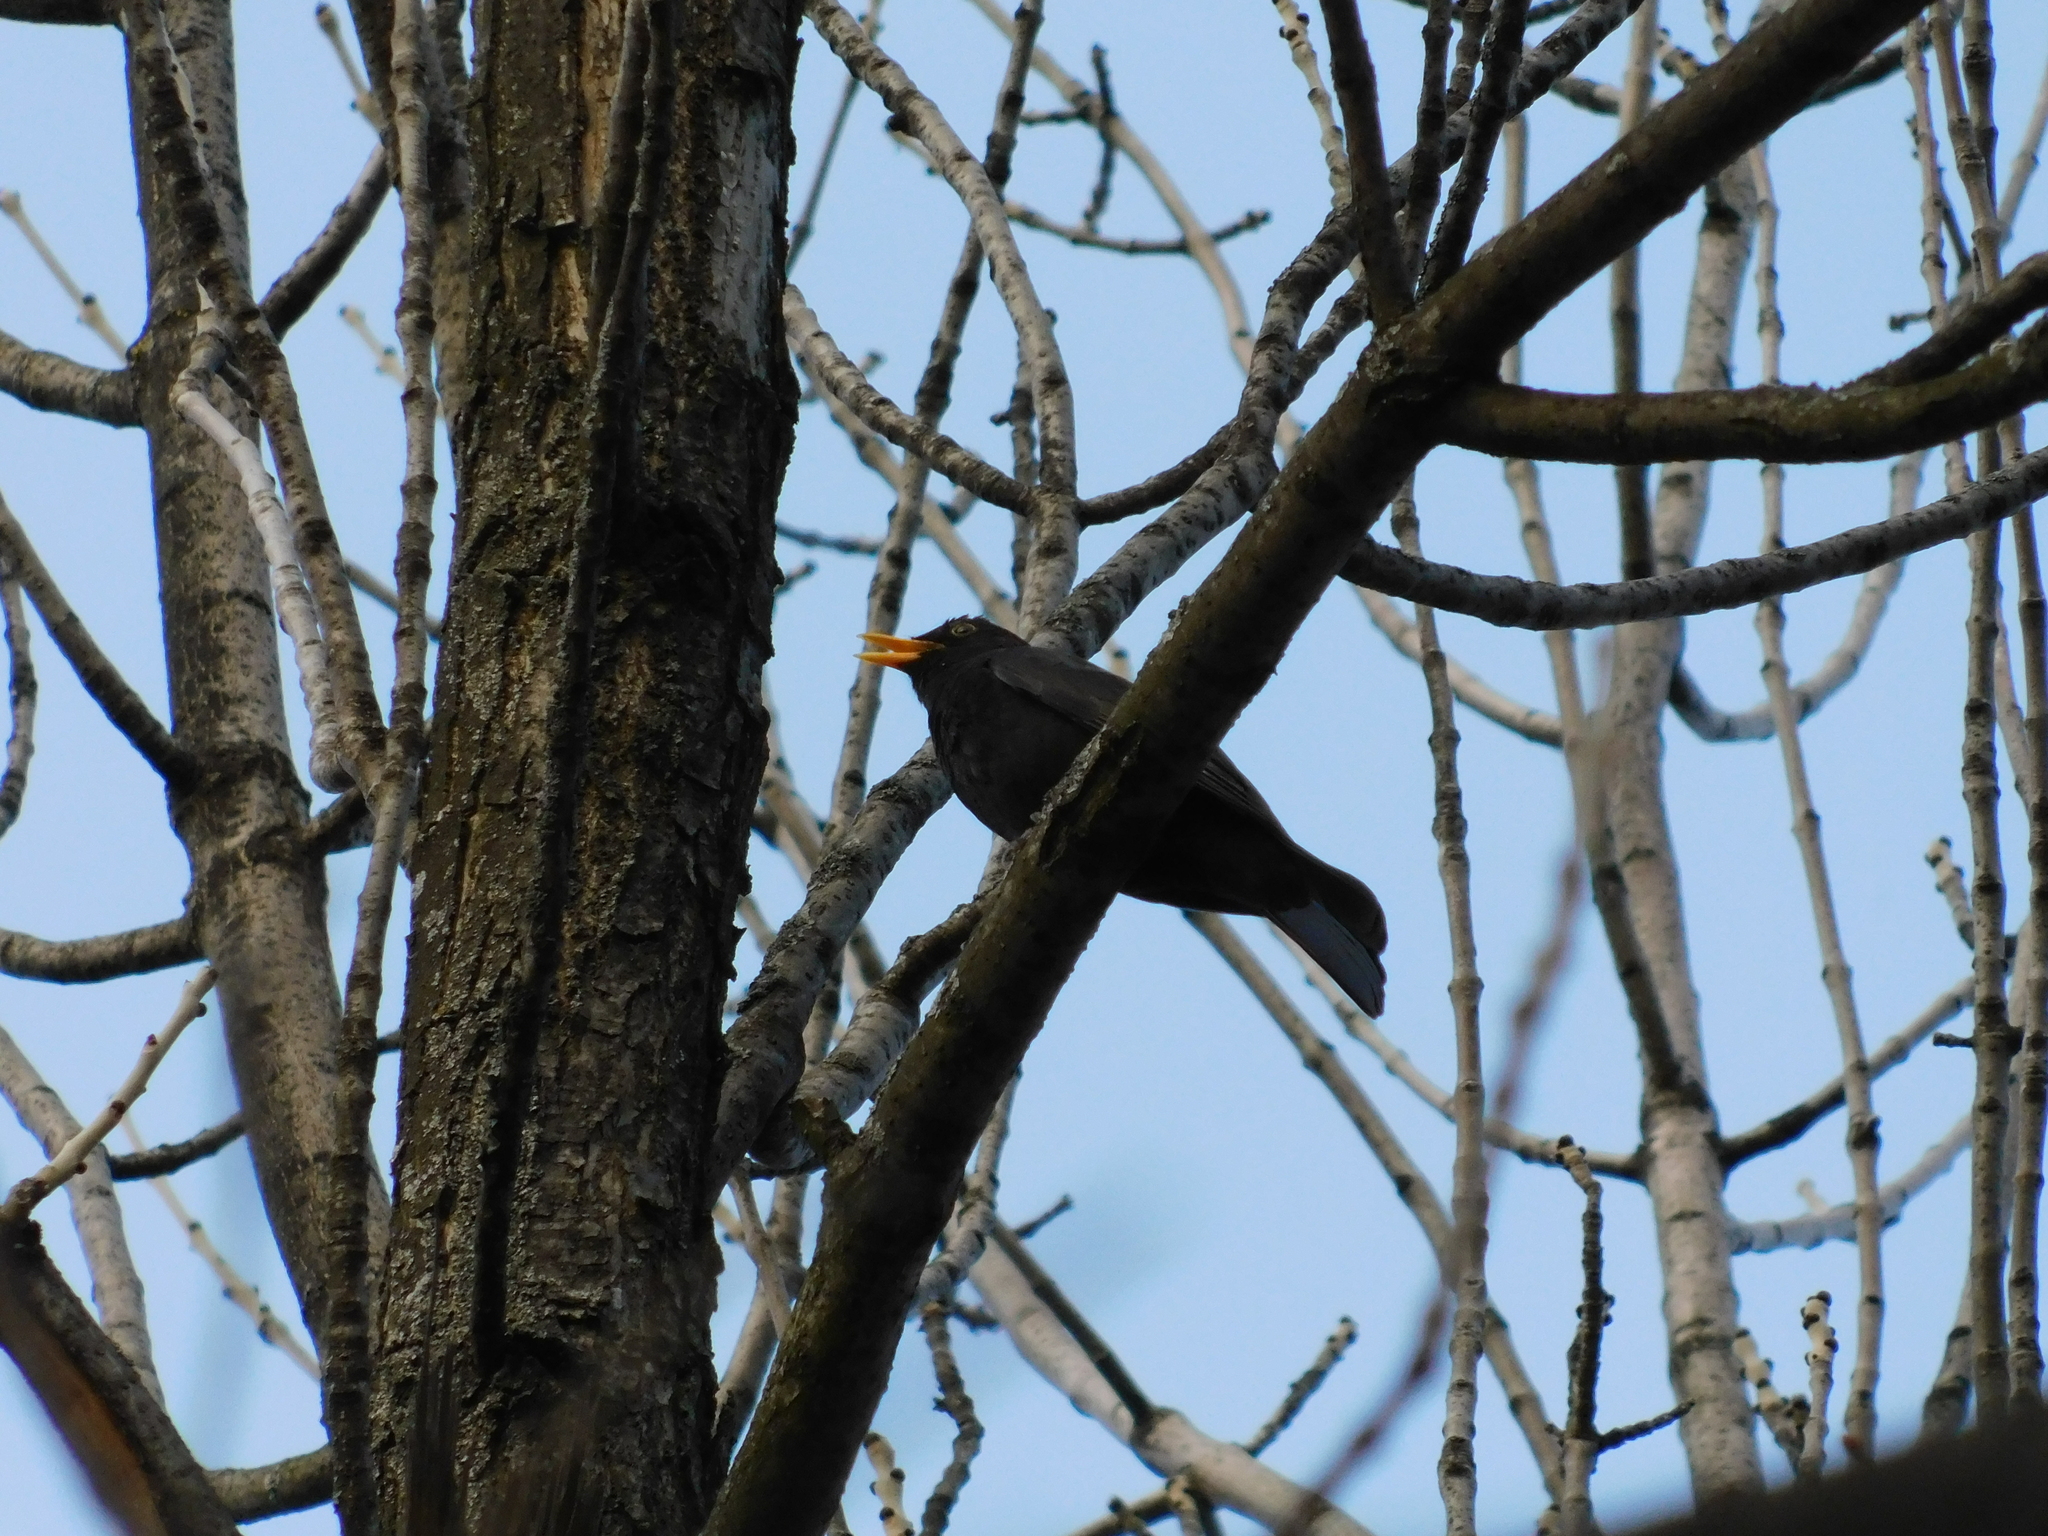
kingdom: Animalia
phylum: Chordata
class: Aves
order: Passeriformes
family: Turdidae
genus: Turdus
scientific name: Turdus merula
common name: Common blackbird
